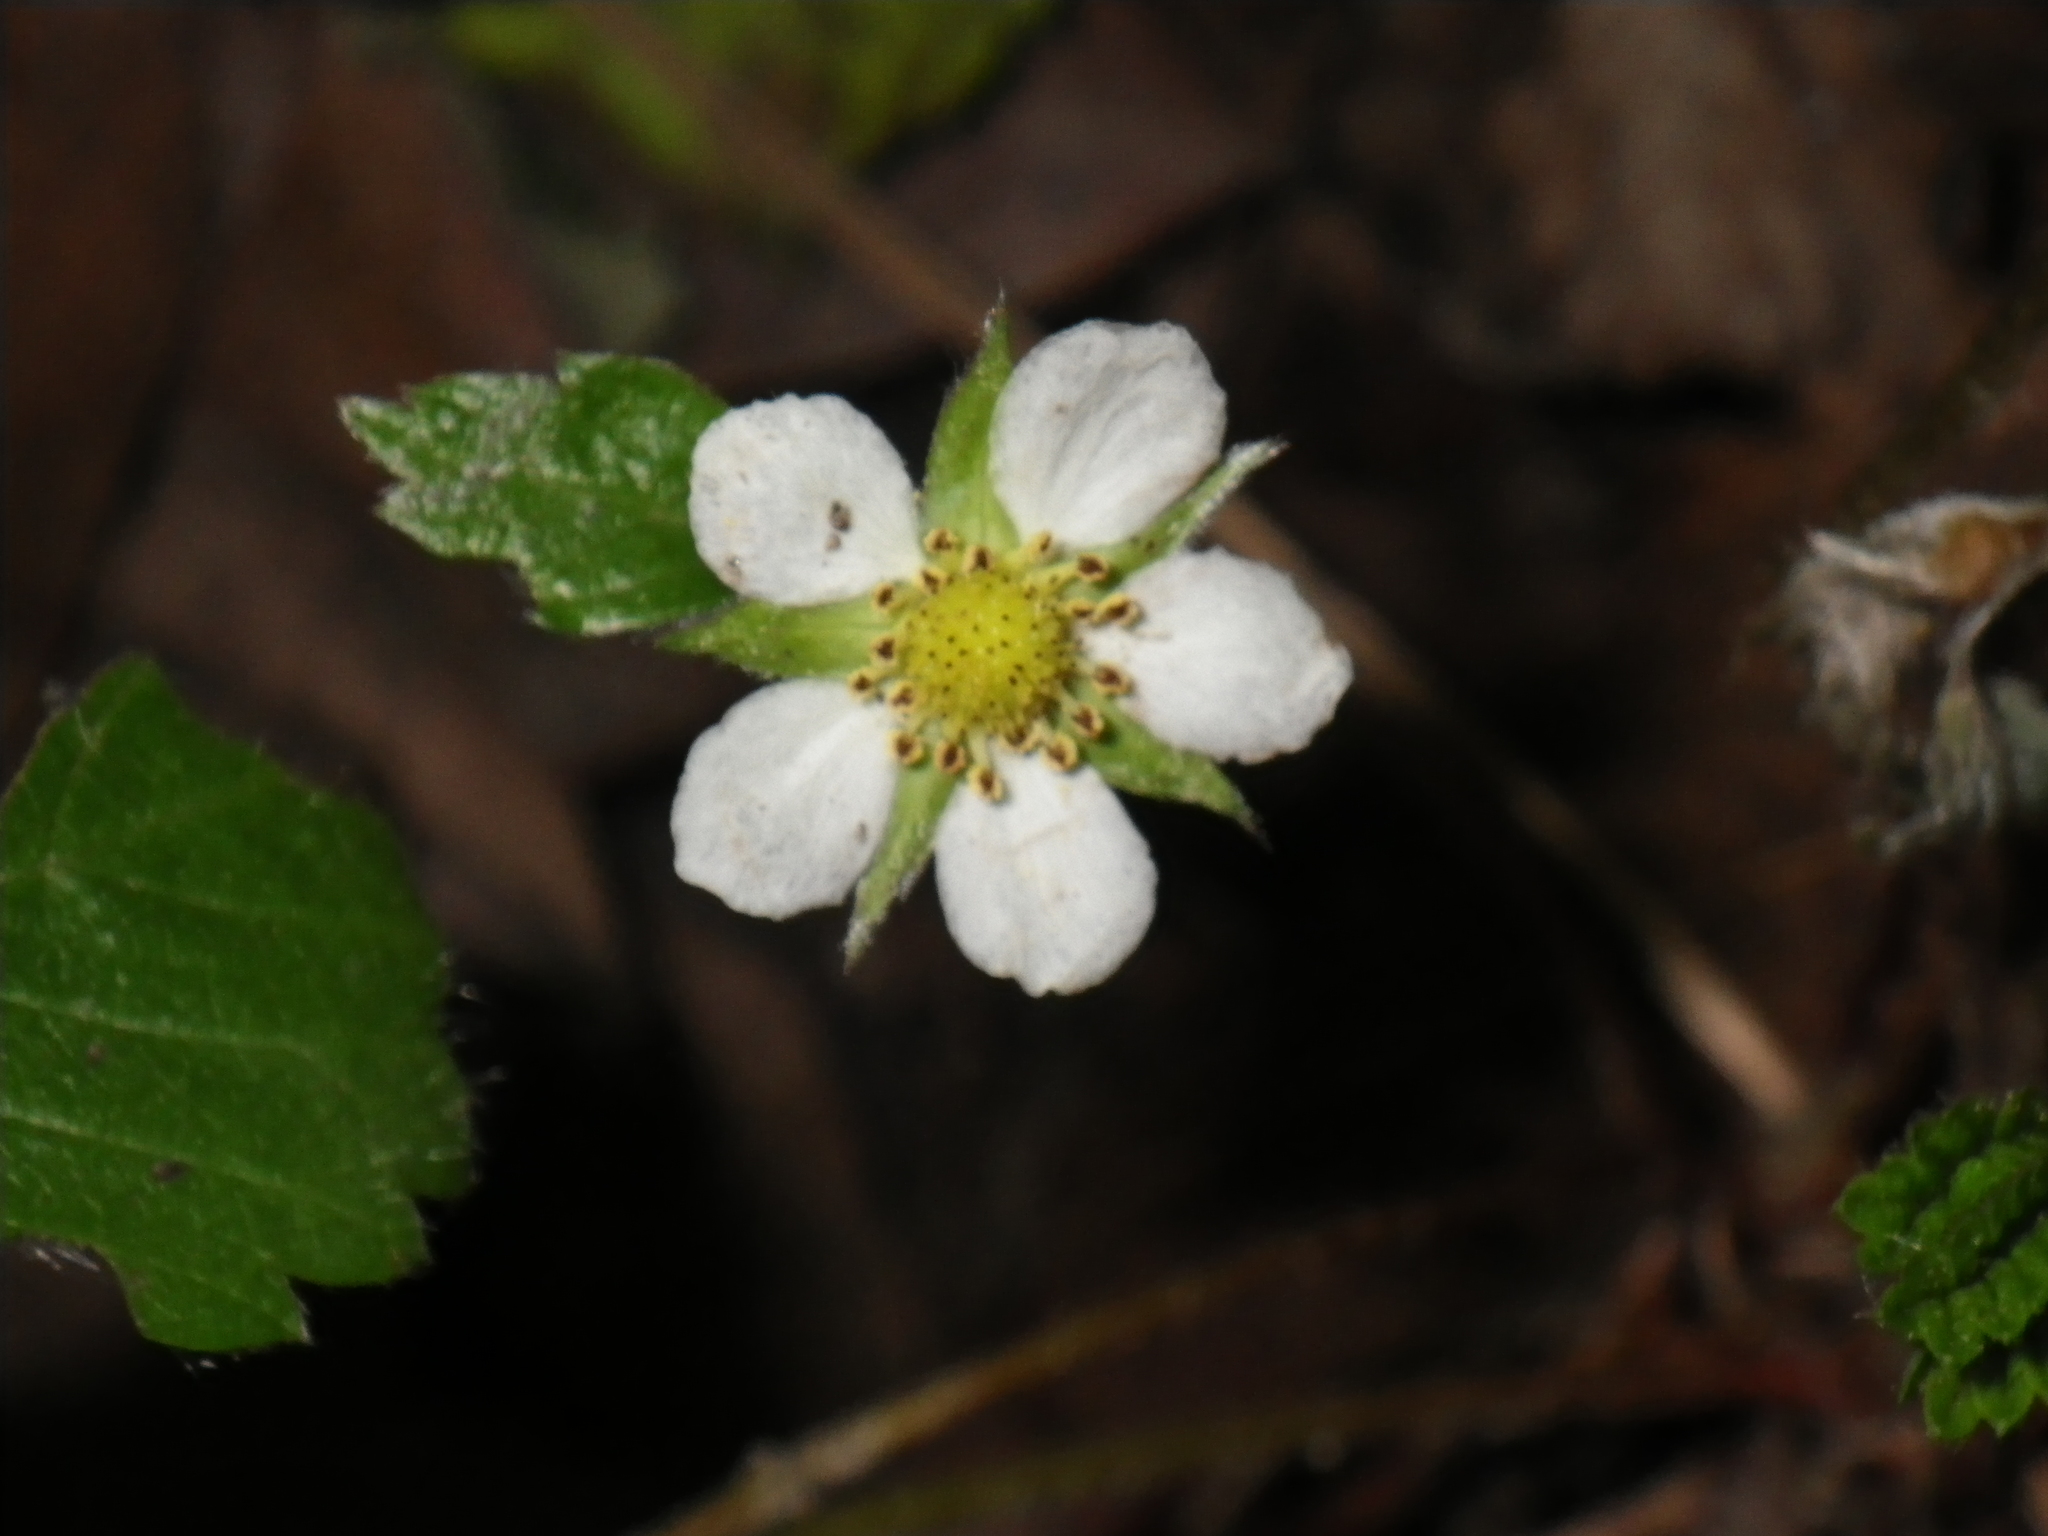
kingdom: Plantae
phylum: Tracheophyta
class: Magnoliopsida
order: Rosales
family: Rosaceae
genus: Fragaria
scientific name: Fragaria vesca
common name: Wild strawberry
